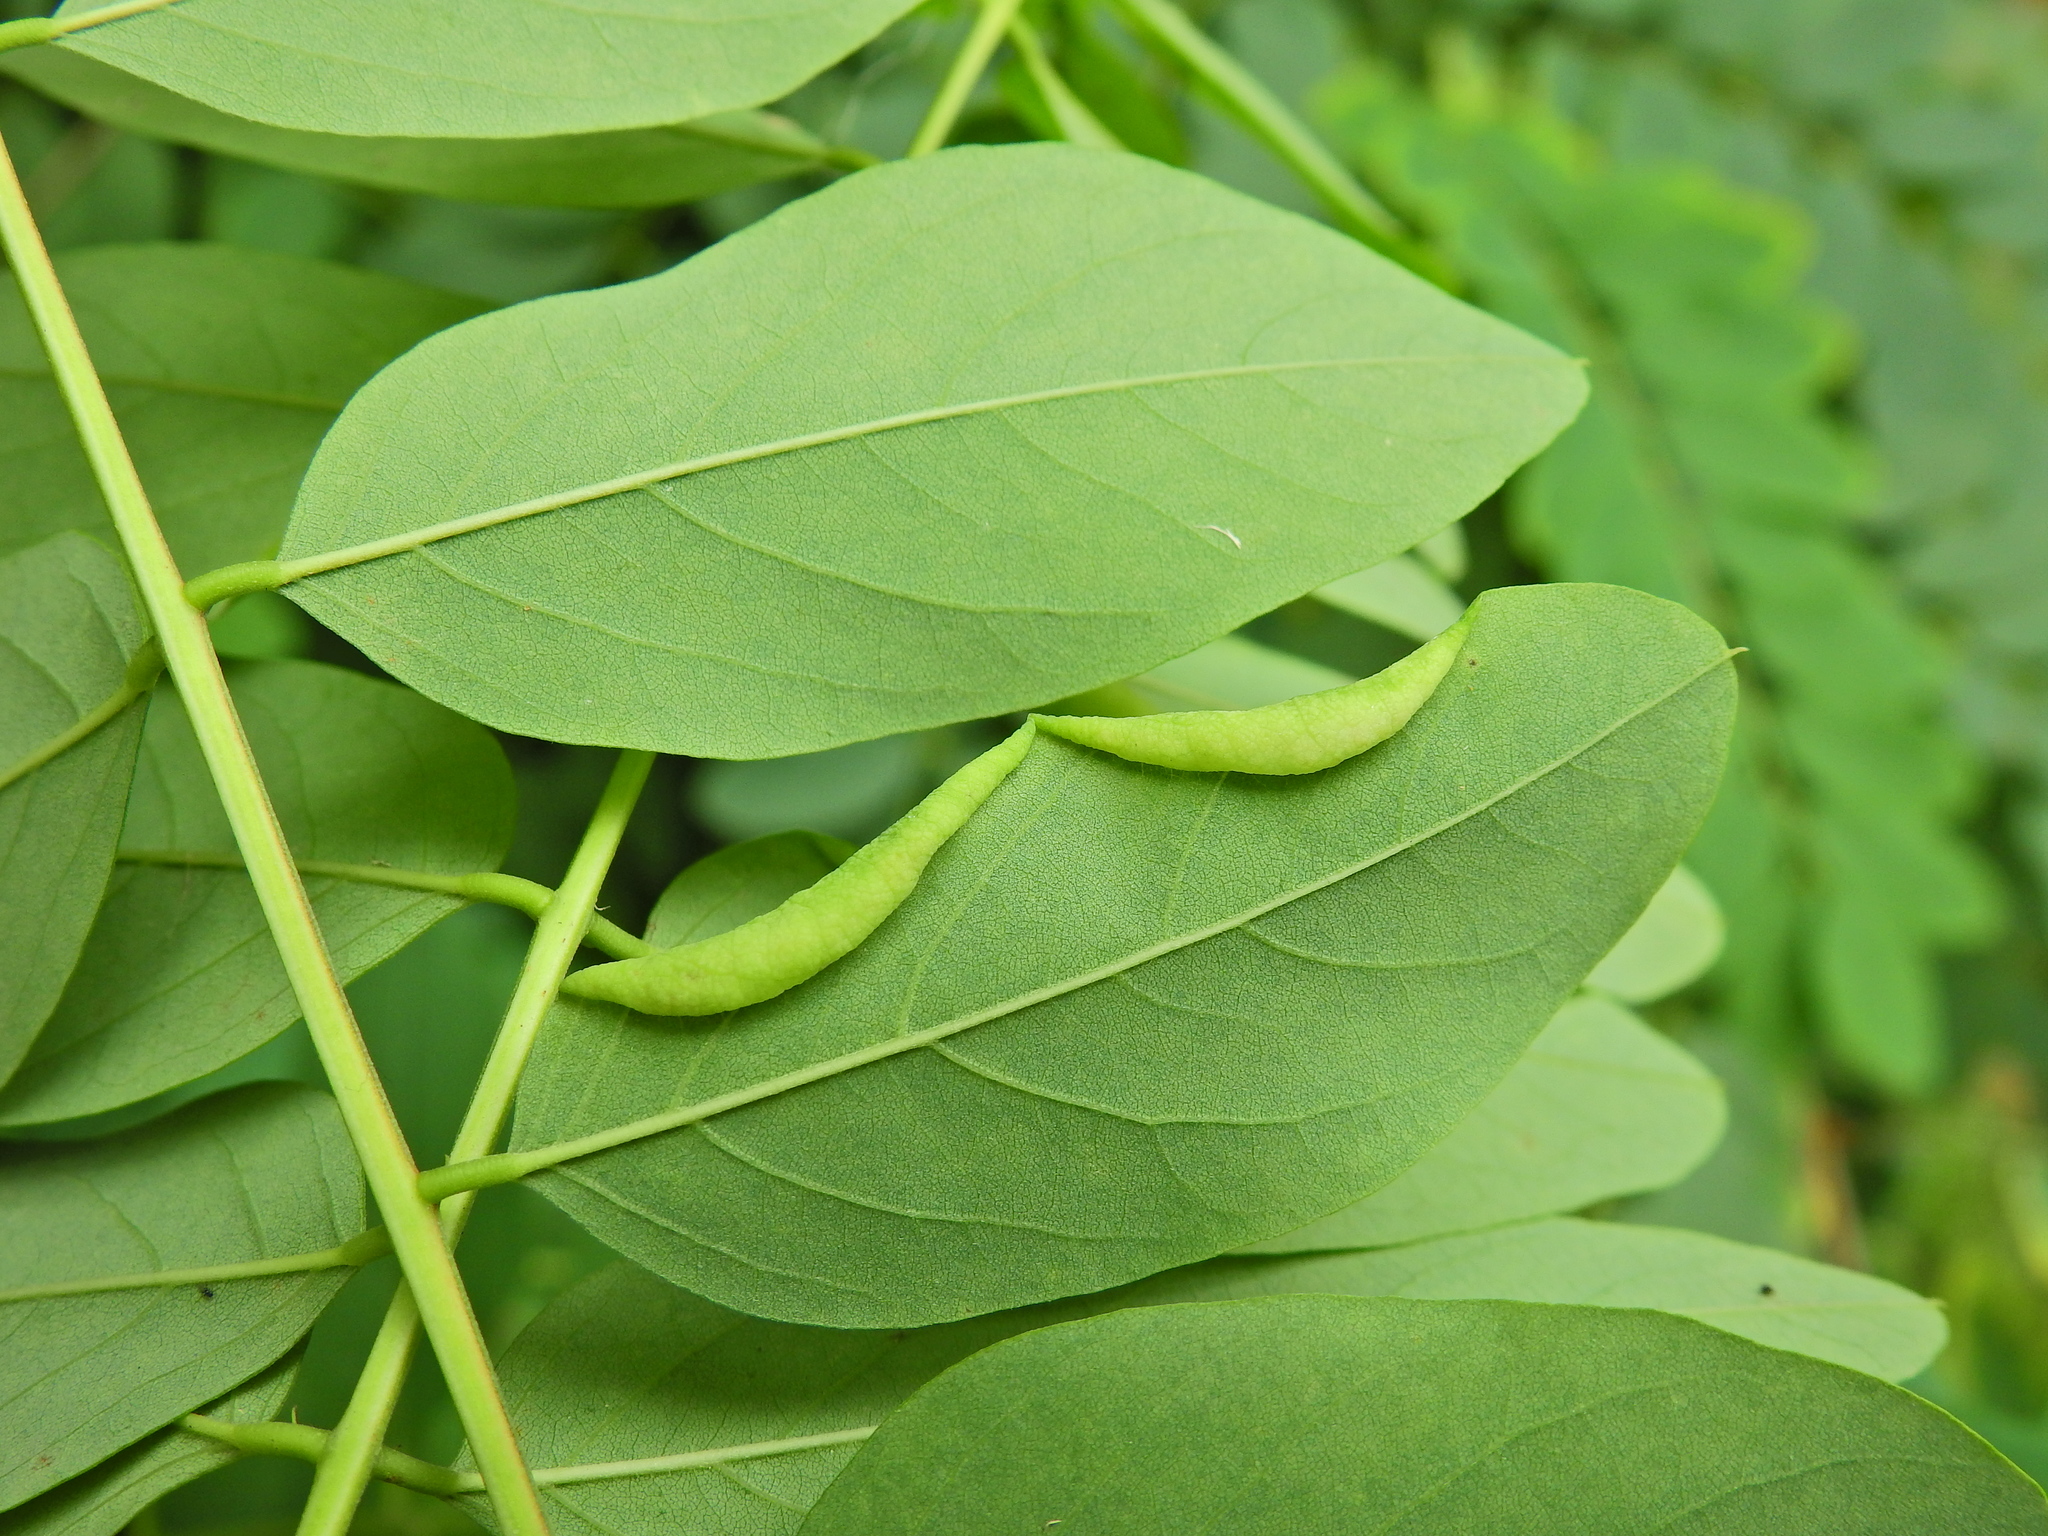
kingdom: Animalia
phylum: Arthropoda
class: Insecta
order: Diptera
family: Cecidomyiidae
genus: Obolodiplosis
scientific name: Obolodiplosis robiniae
